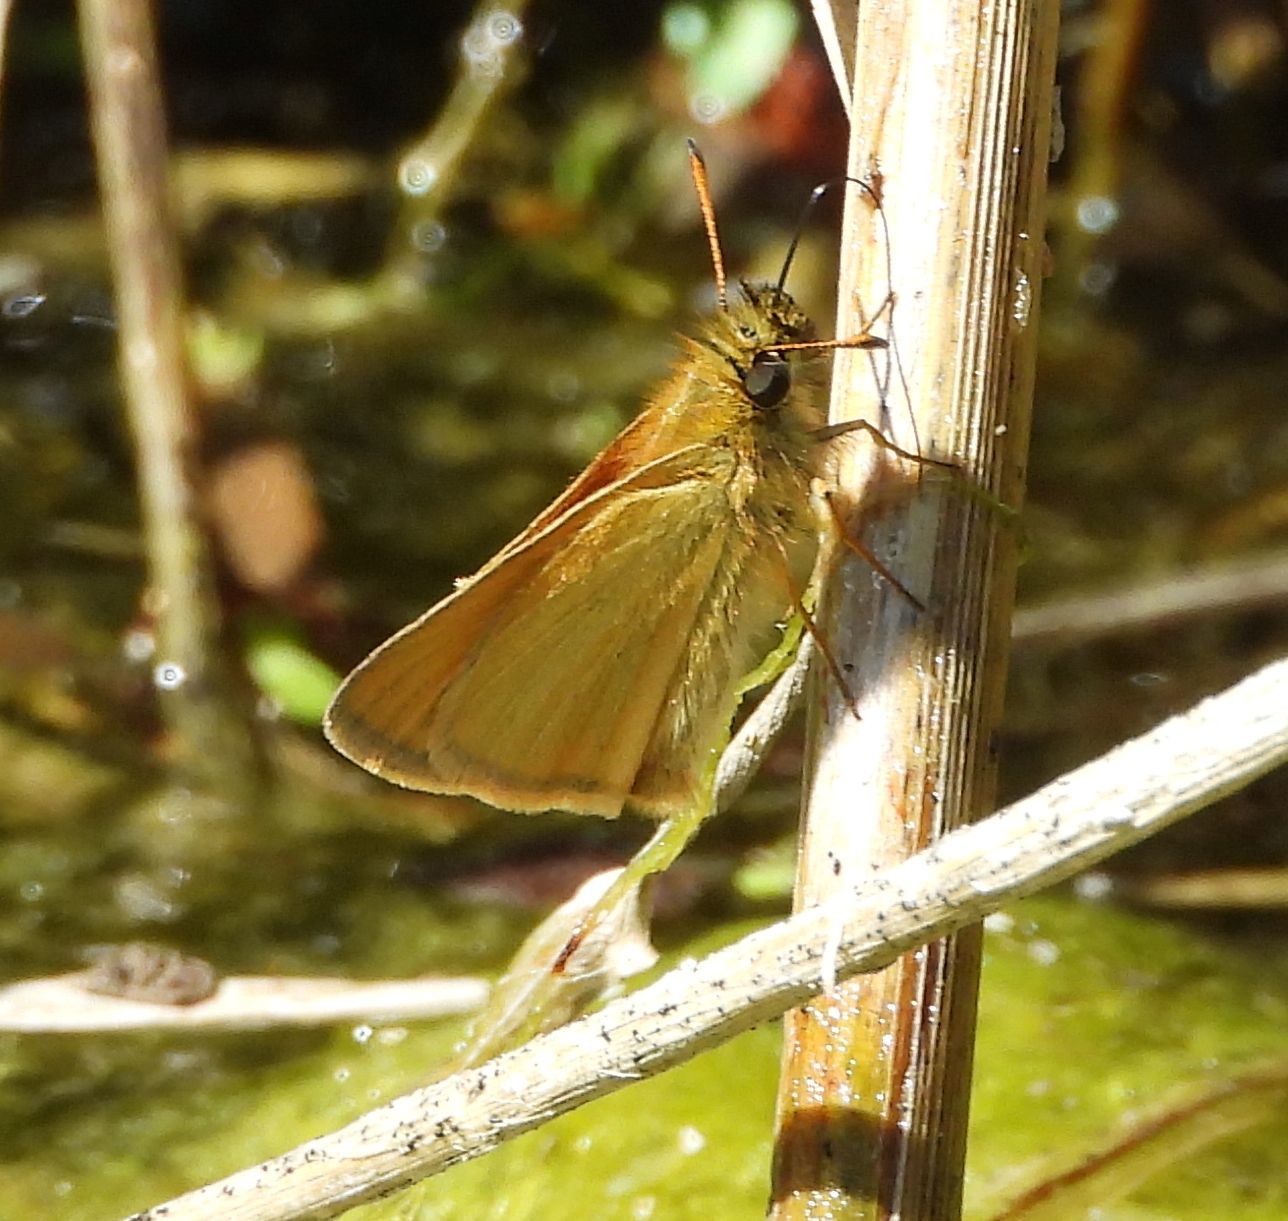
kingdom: Animalia
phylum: Arthropoda
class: Insecta
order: Lepidoptera
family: Hesperiidae
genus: Thymelicus
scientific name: Thymelicus lineola
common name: Essex skipper
